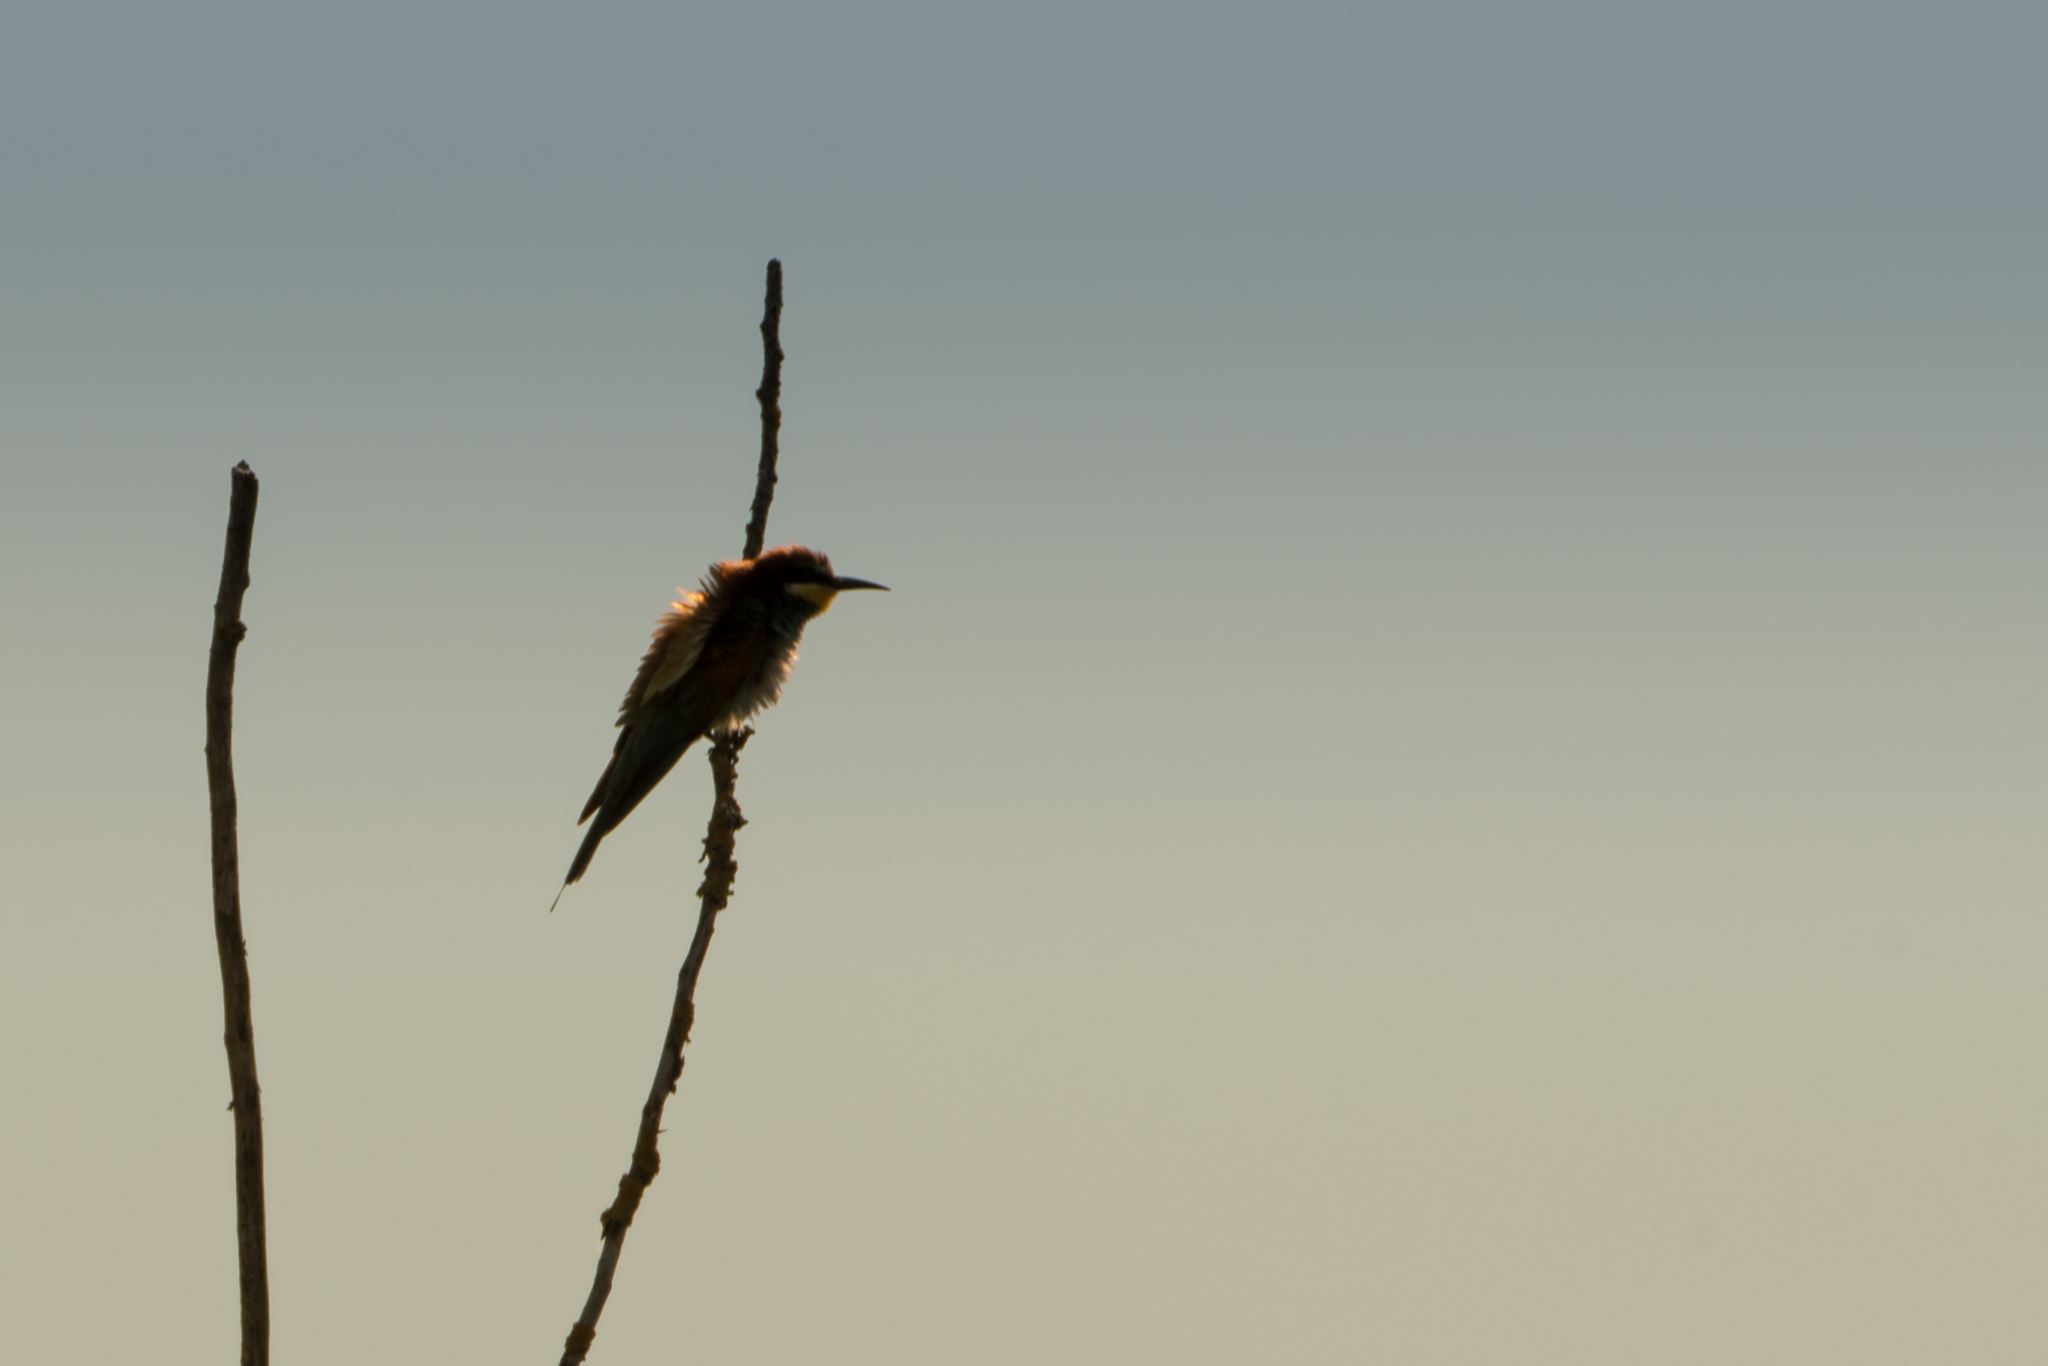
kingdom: Animalia
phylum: Chordata
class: Aves
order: Coraciiformes
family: Meropidae
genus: Merops
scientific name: Merops apiaster
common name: European bee-eater
